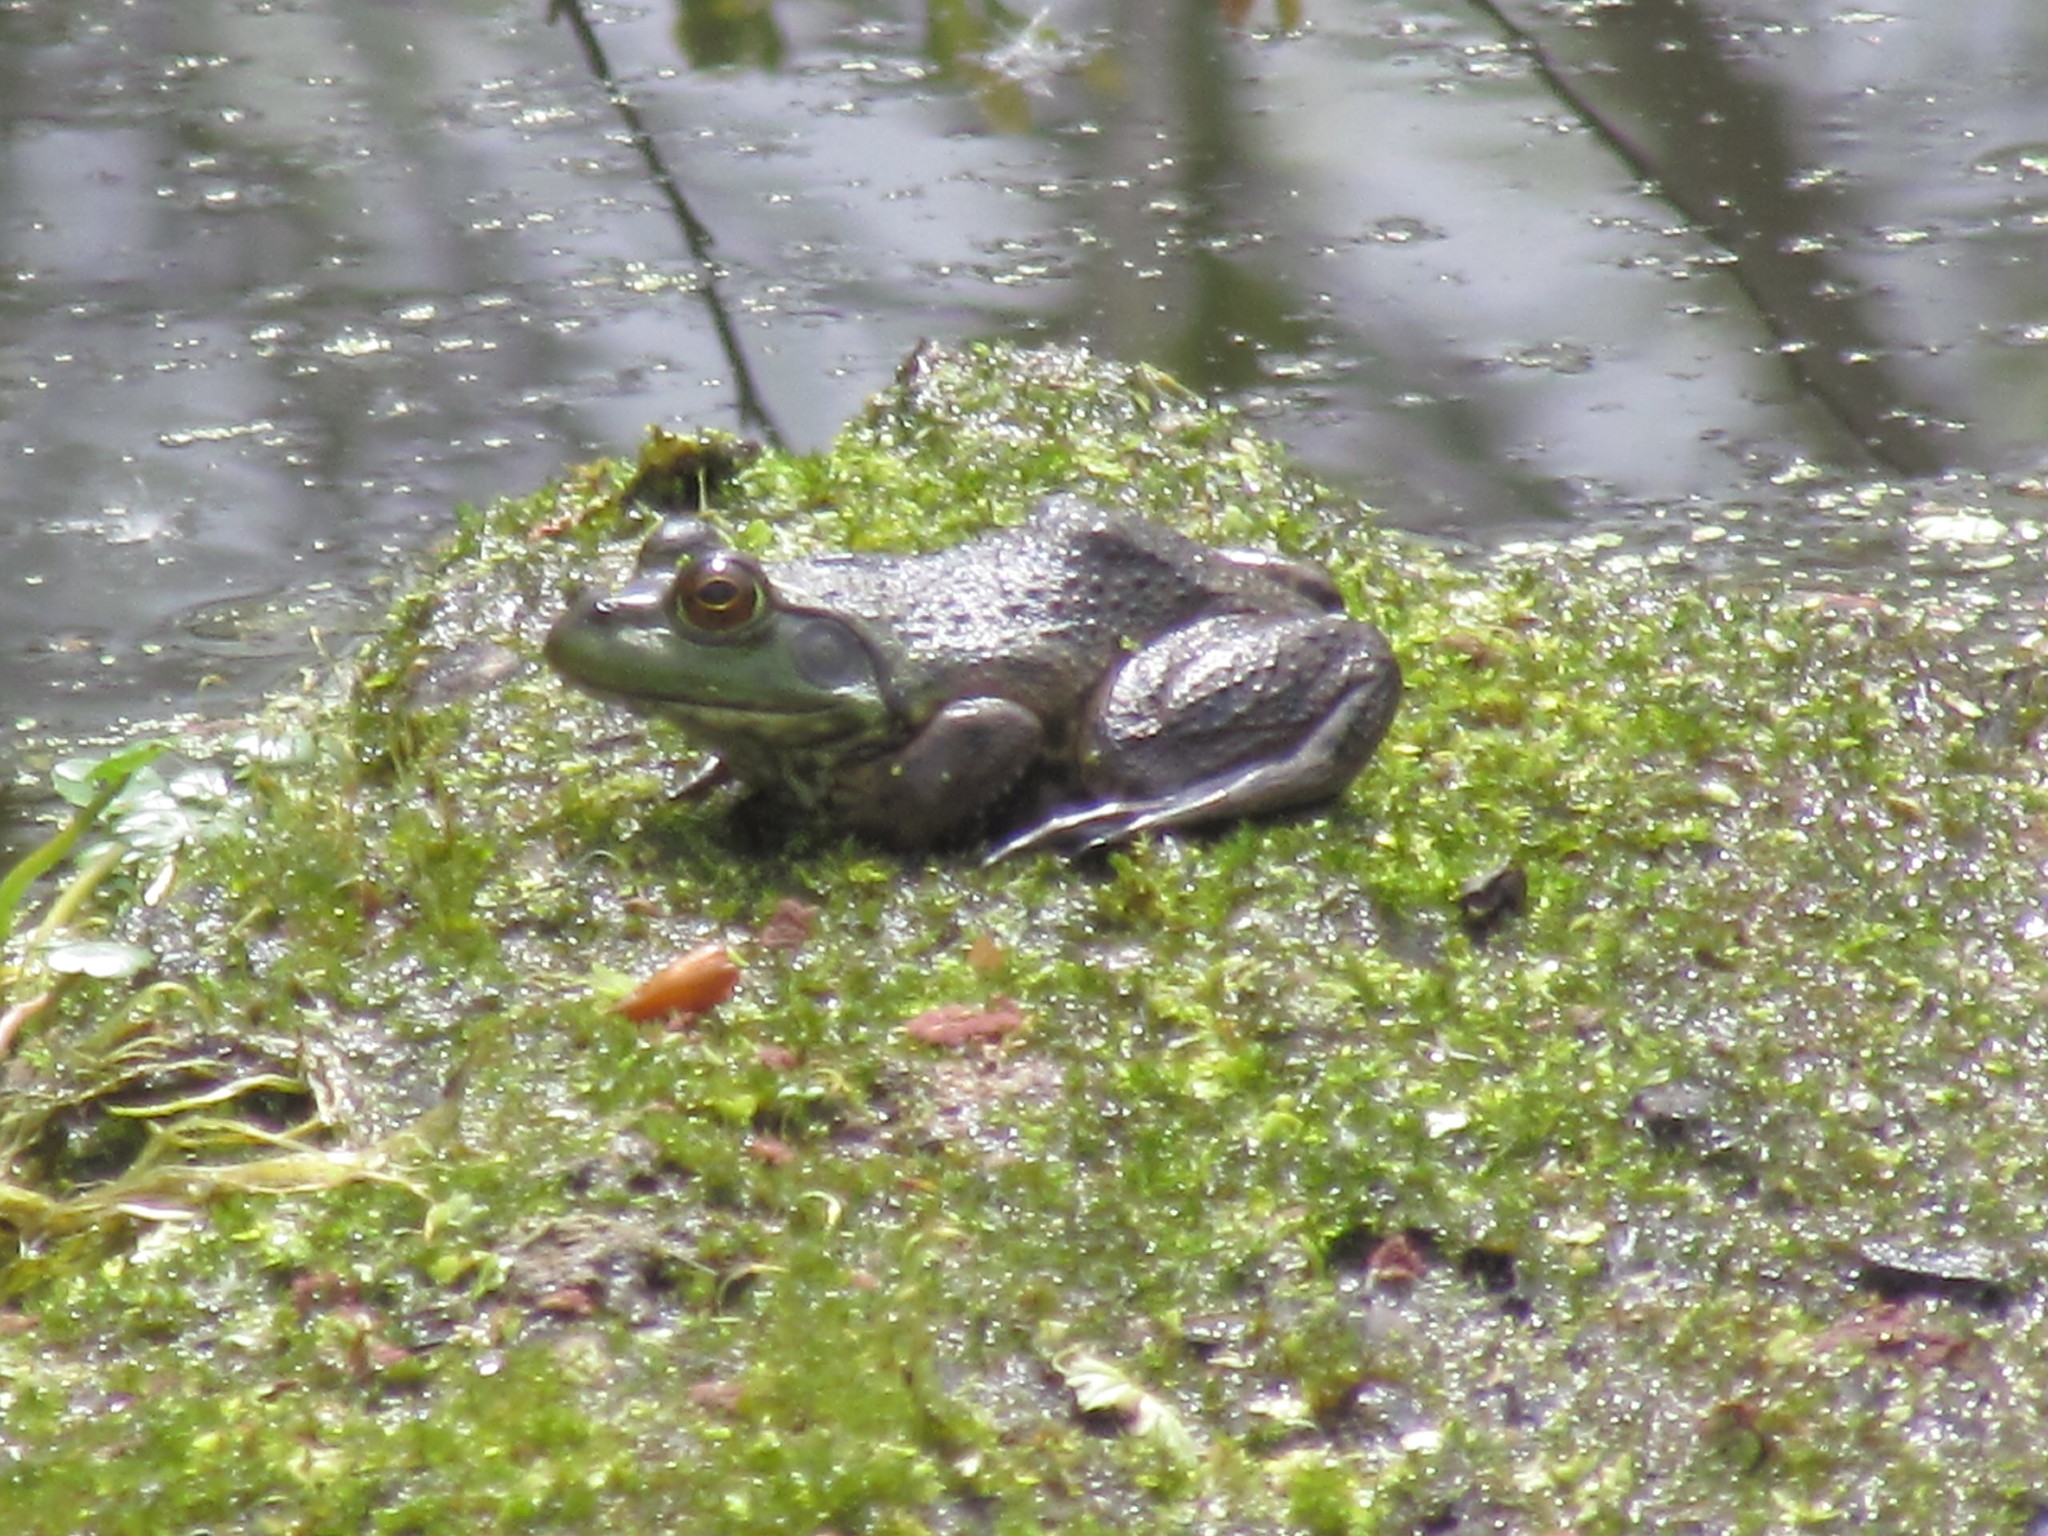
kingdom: Animalia
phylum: Chordata
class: Amphibia
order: Anura
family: Ranidae
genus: Lithobates
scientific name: Lithobates catesbeianus
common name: American bullfrog
